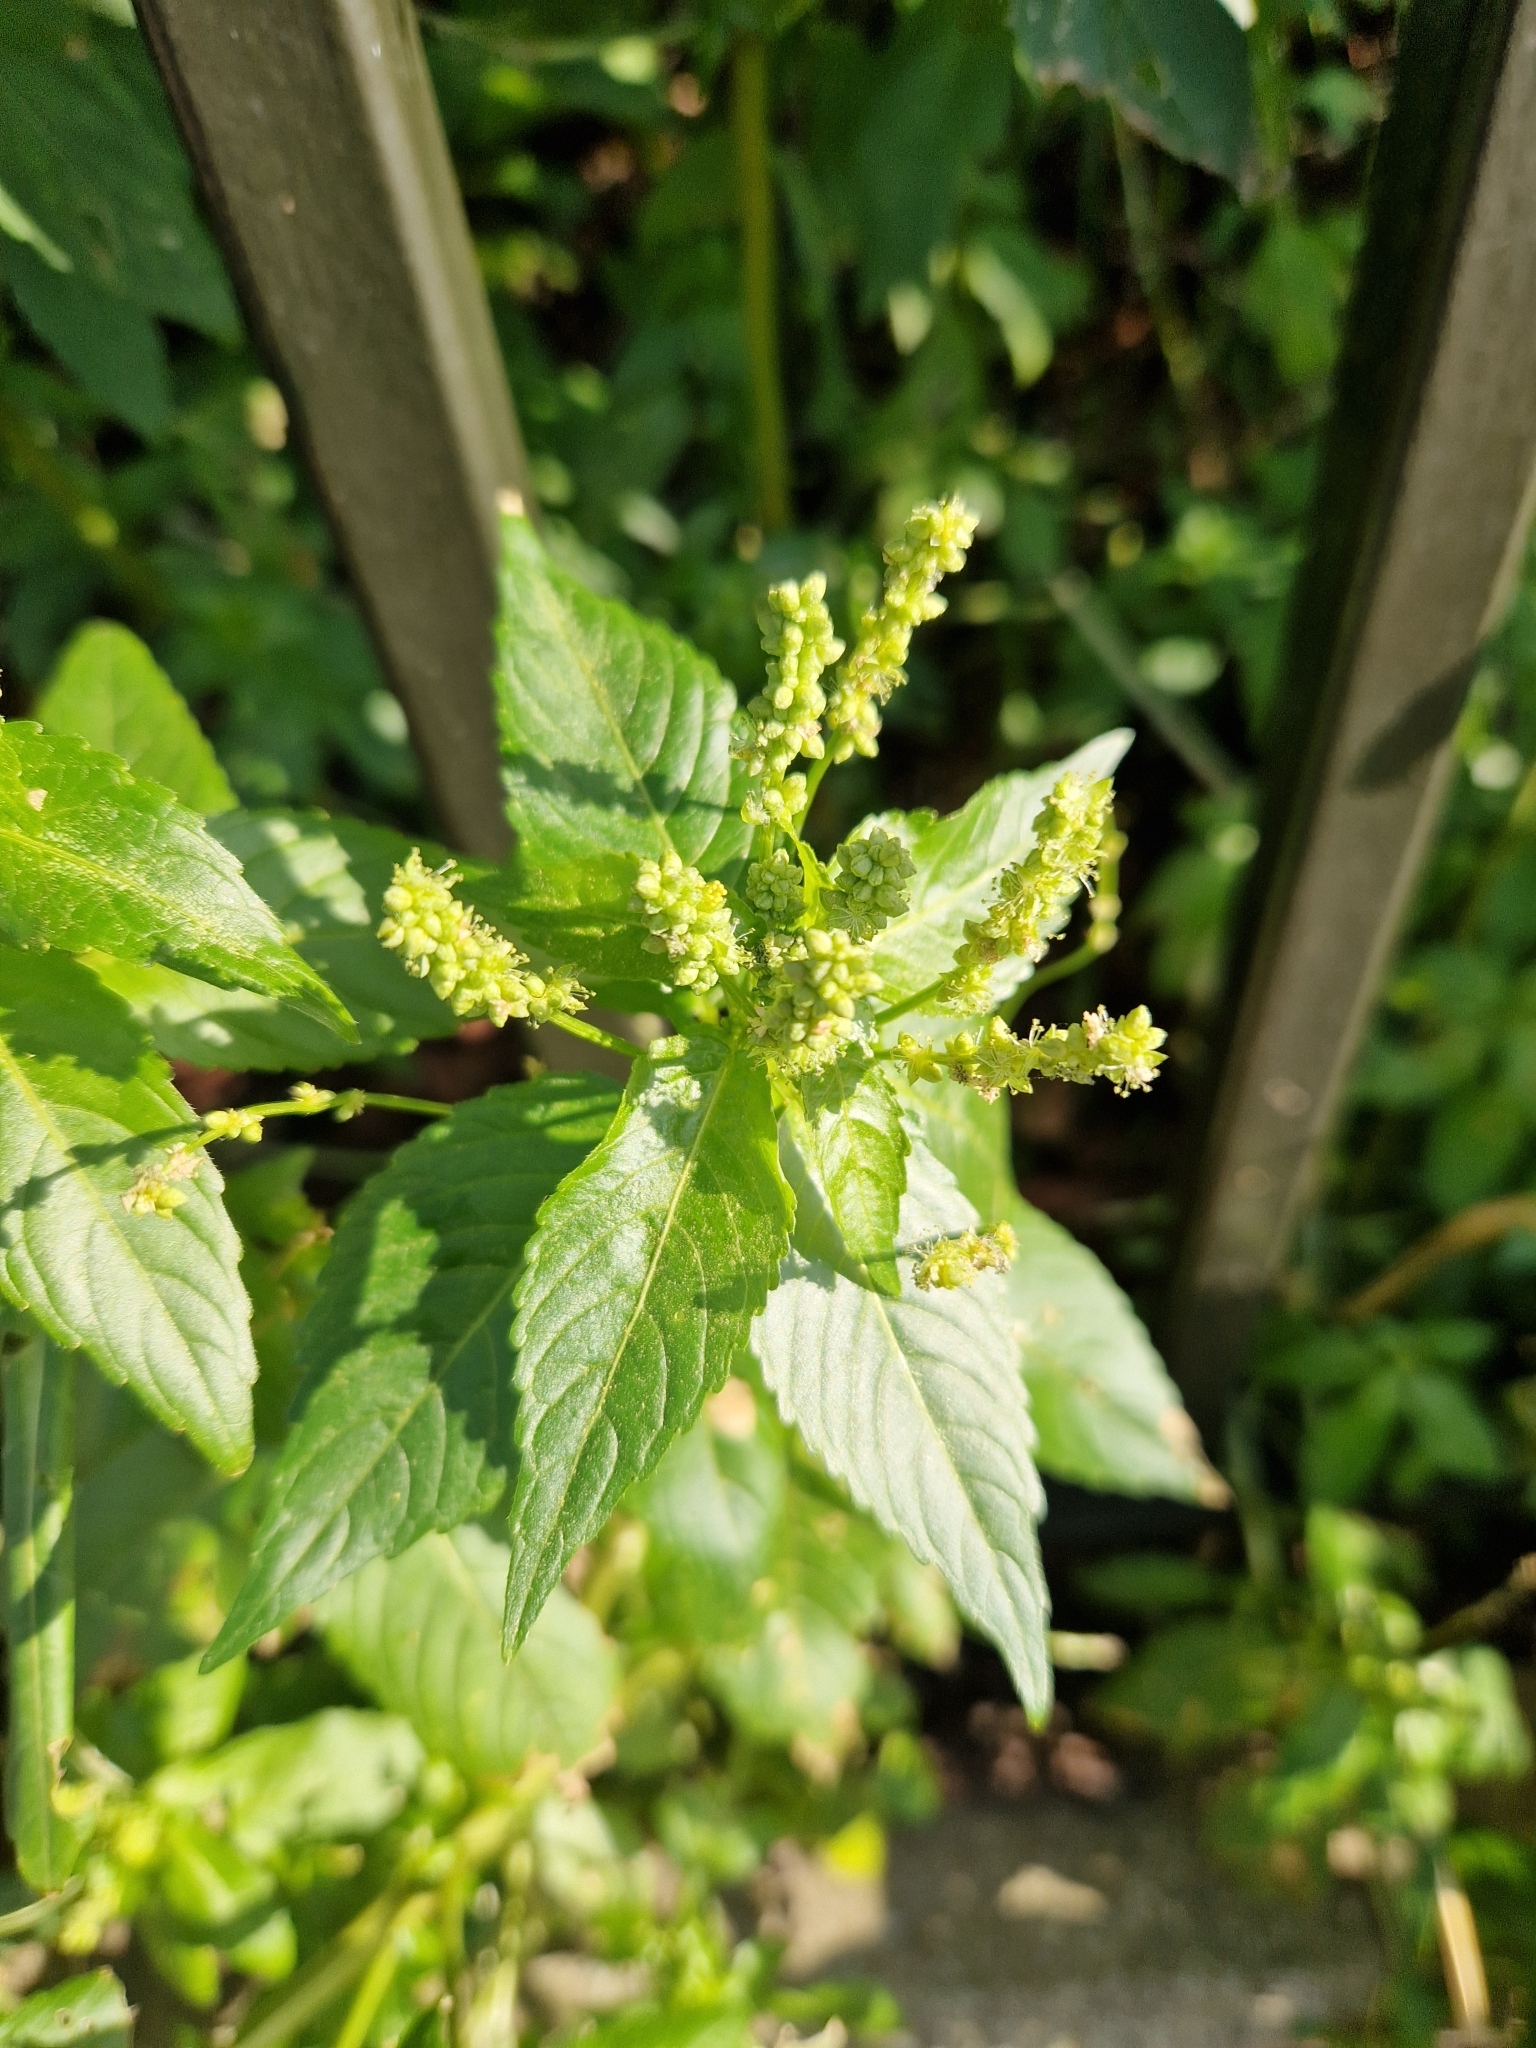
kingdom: Plantae
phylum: Tracheophyta
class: Magnoliopsida
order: Malpighiales
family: Euphorbiaceae
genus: Mercurialis
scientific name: Mercurialis annua
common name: Annual mercury
